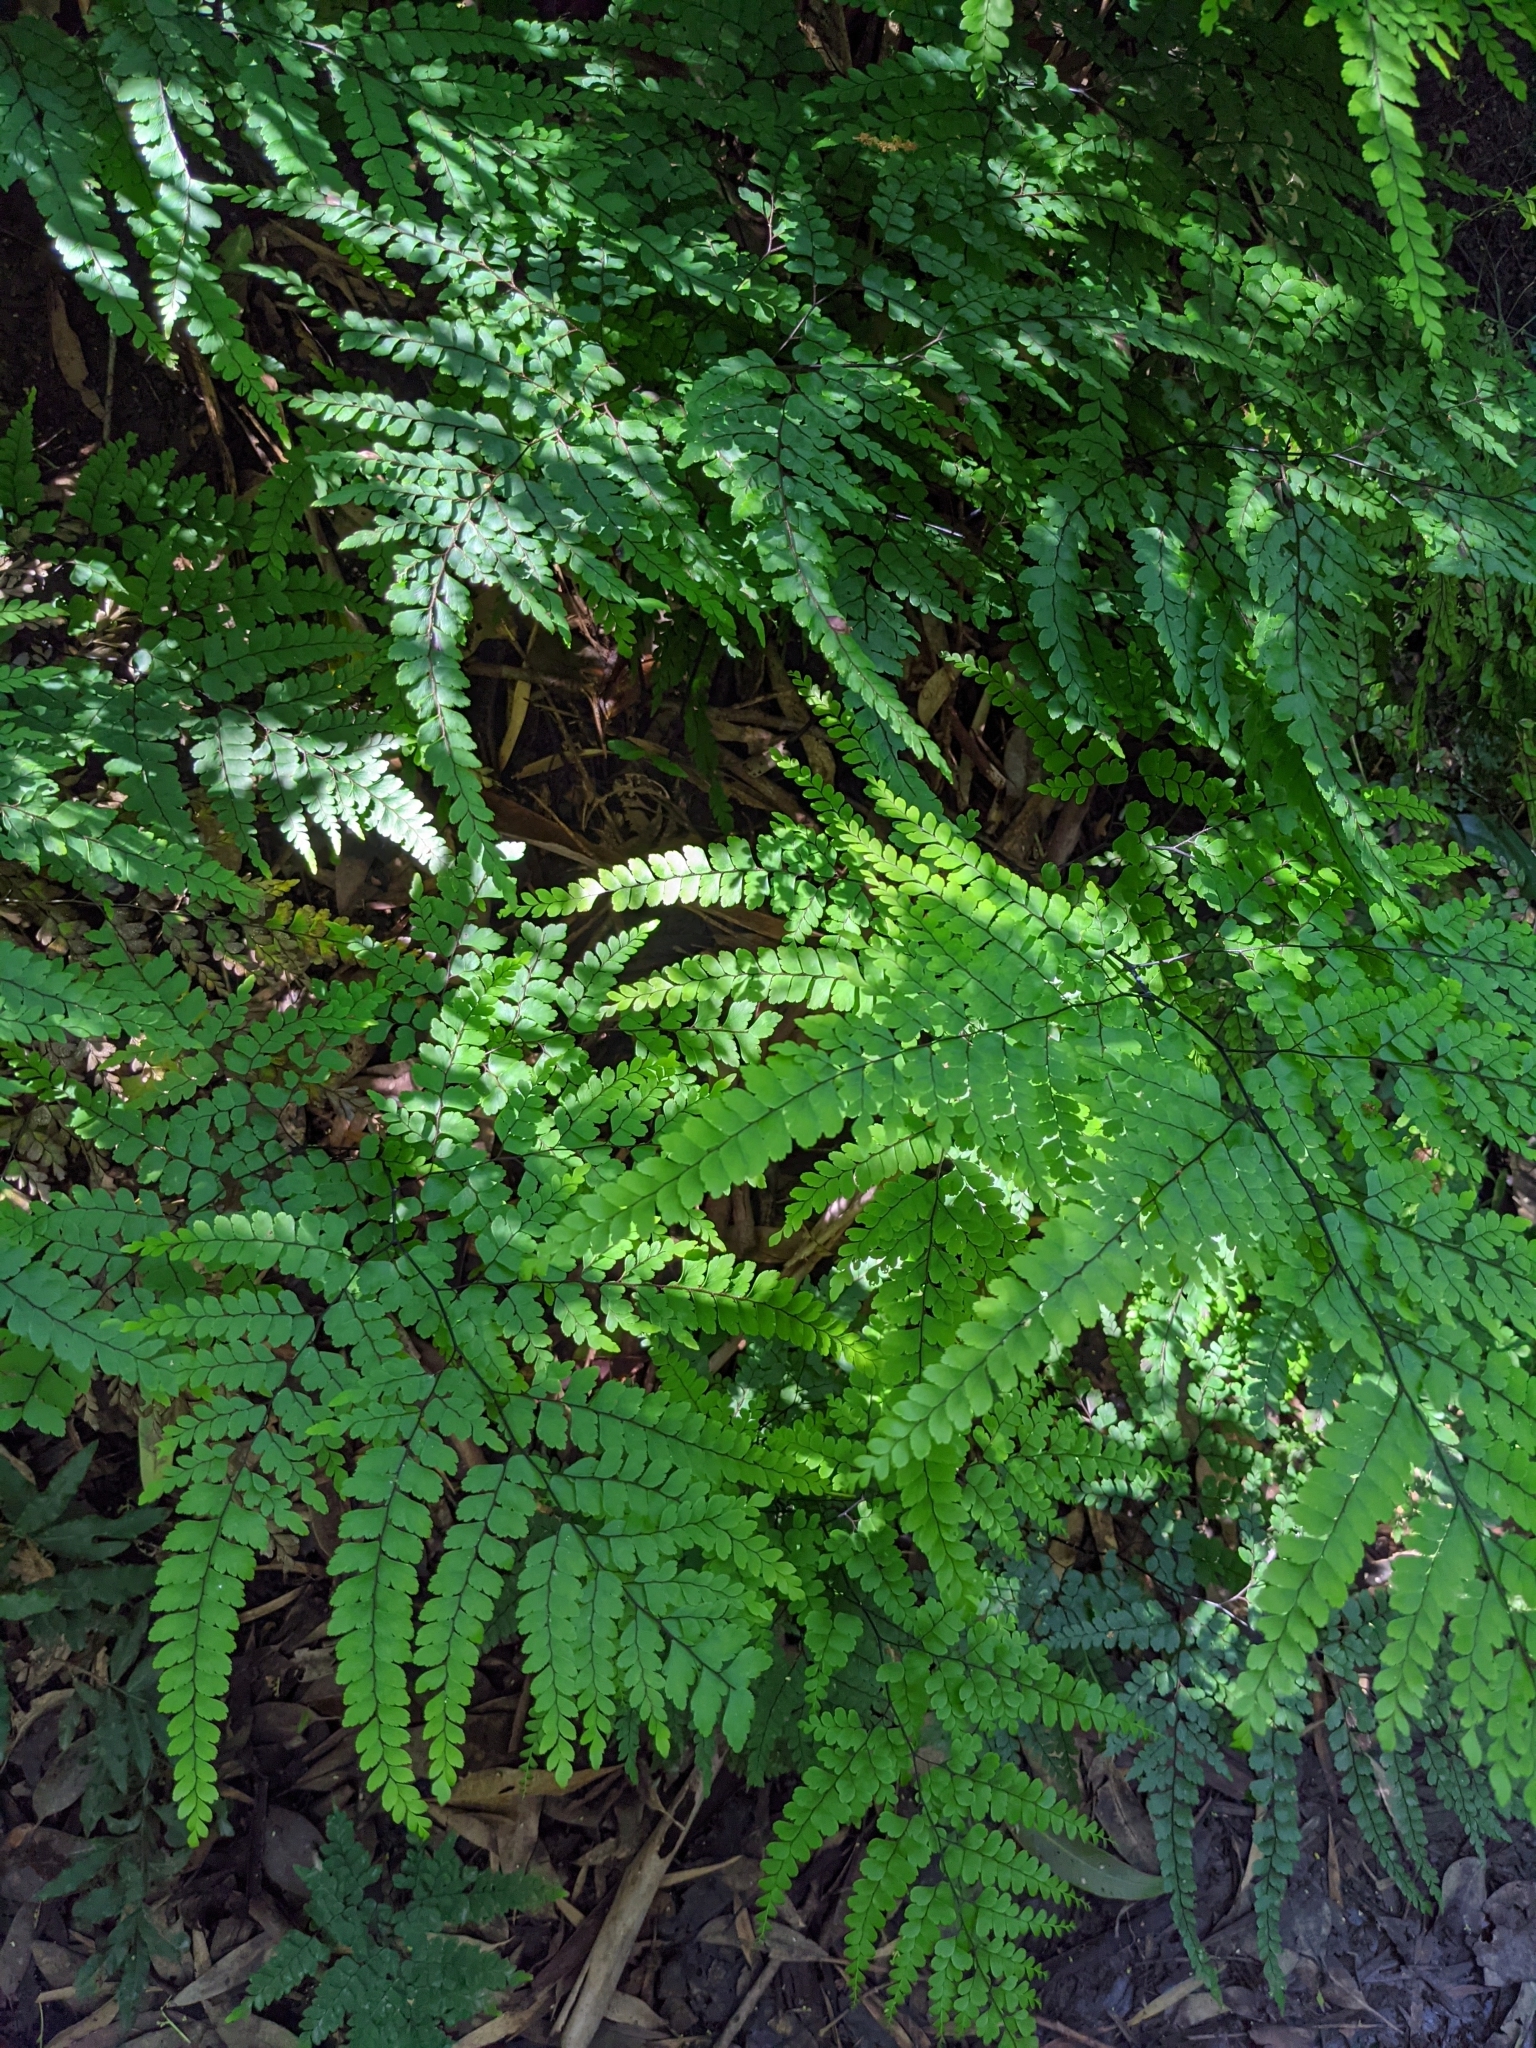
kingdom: Plantae
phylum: Tracheophyta
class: Polypodiopsida
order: Polypodiales
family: Pteridaceae
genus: Adiantum
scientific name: Adiantum formosum
